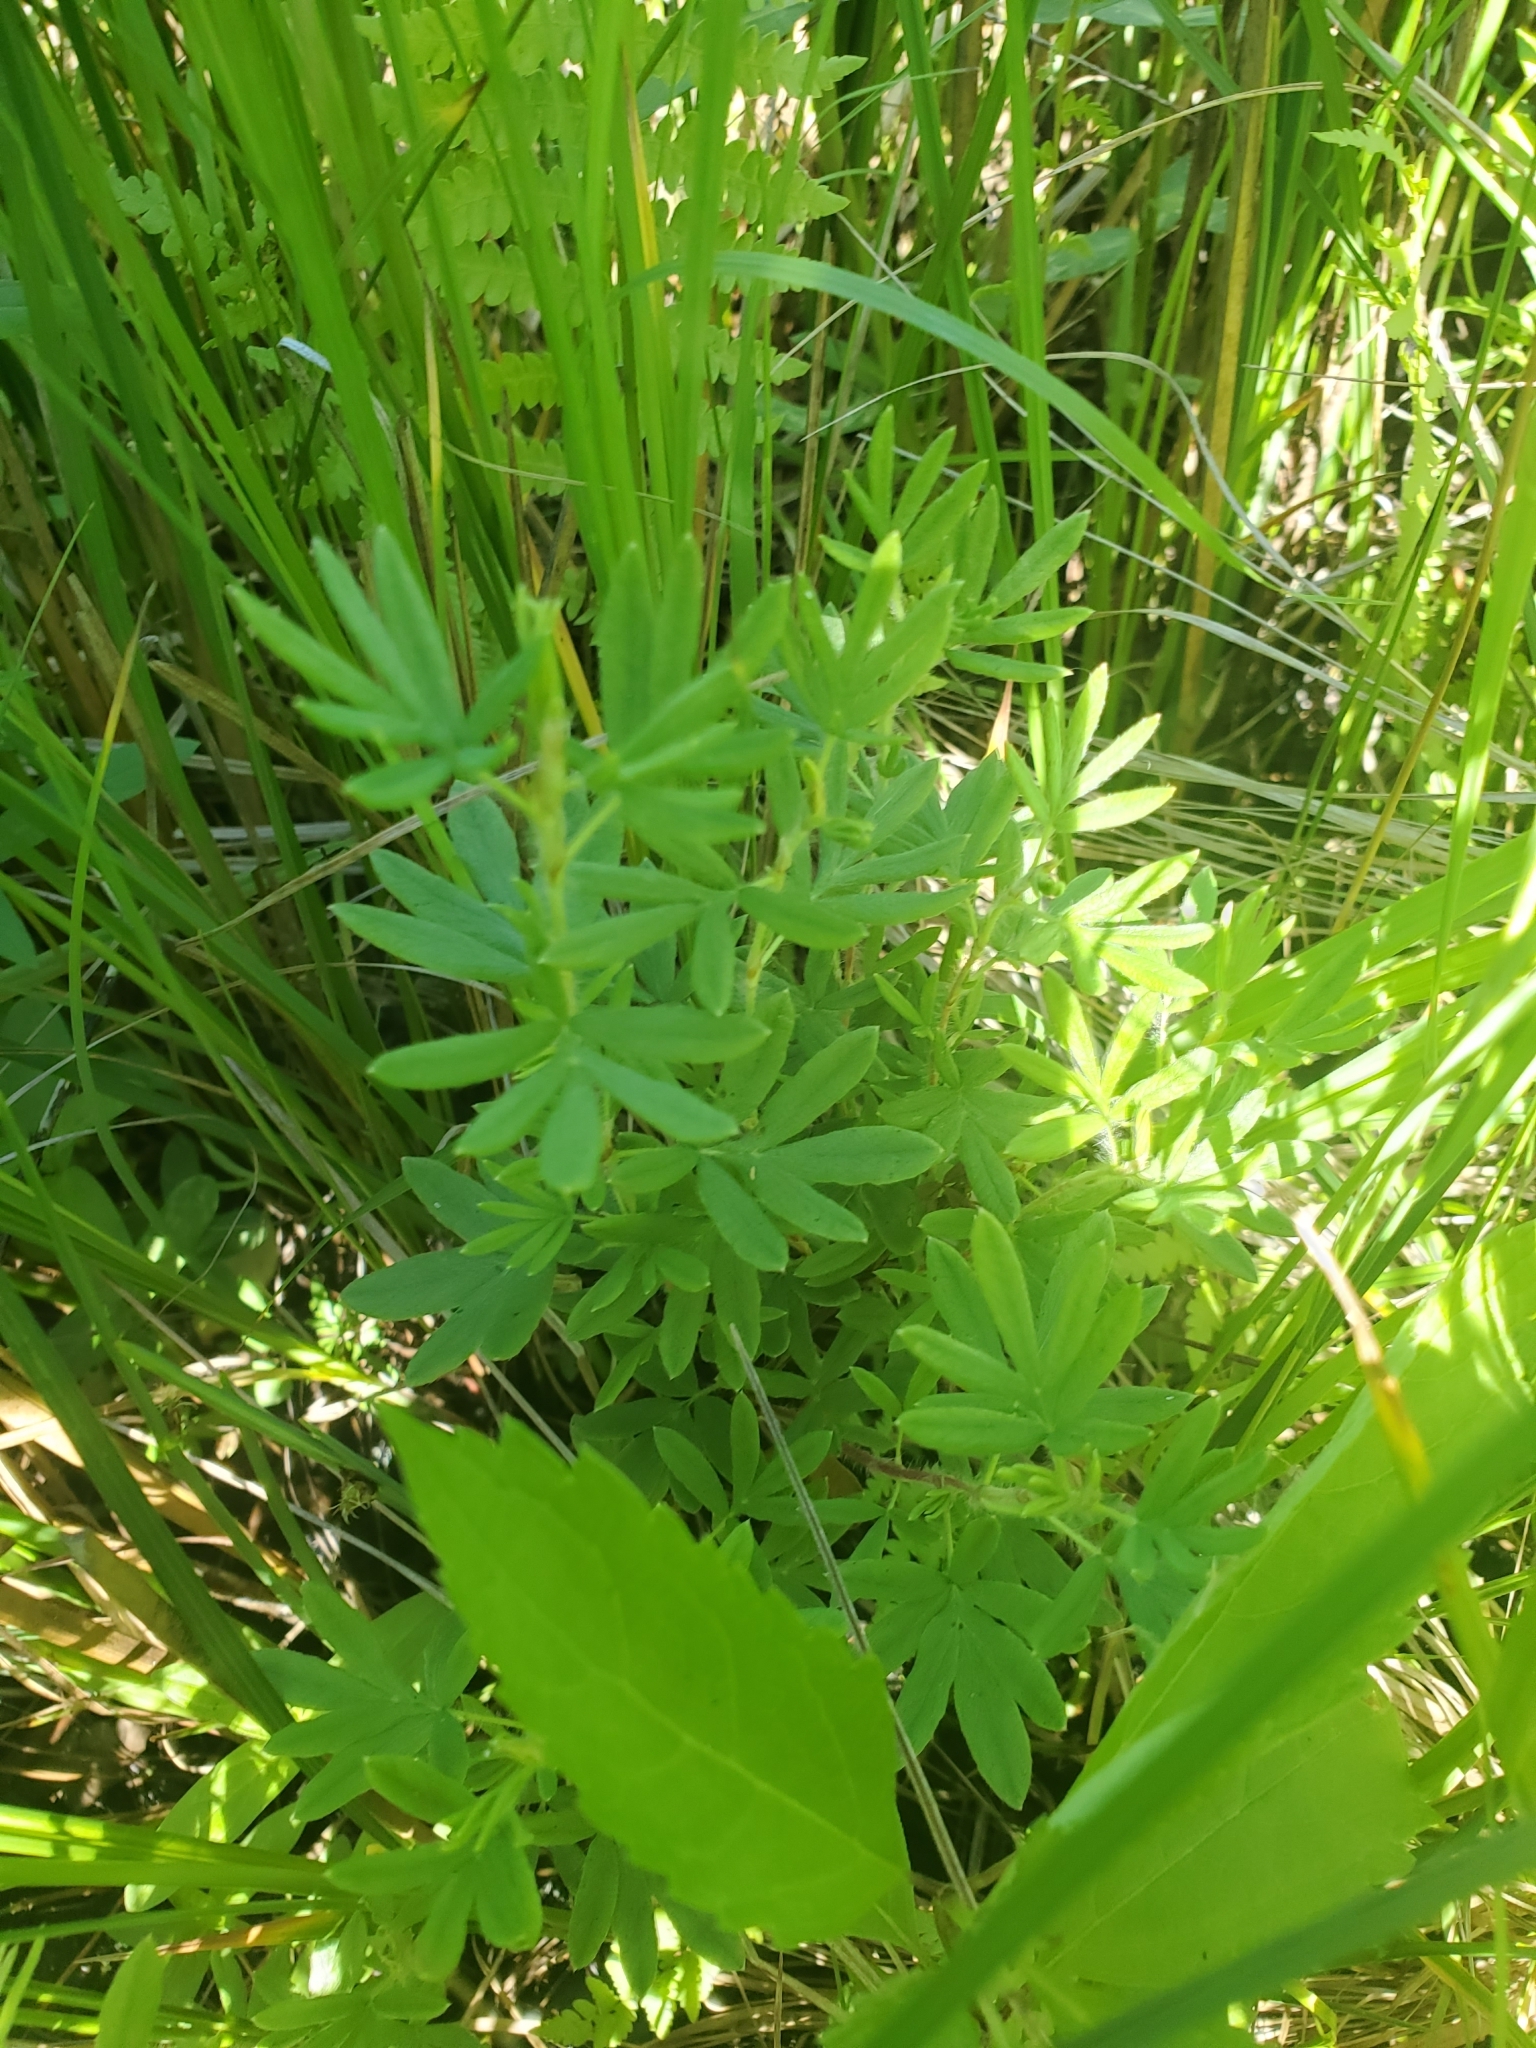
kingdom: Plantae
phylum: Tracheophyta
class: Magnoliopsida
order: Rosales
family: Rosaceae
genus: Dasiphora
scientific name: Dasiphora fruticosa
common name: Shrubby cinquefoil
